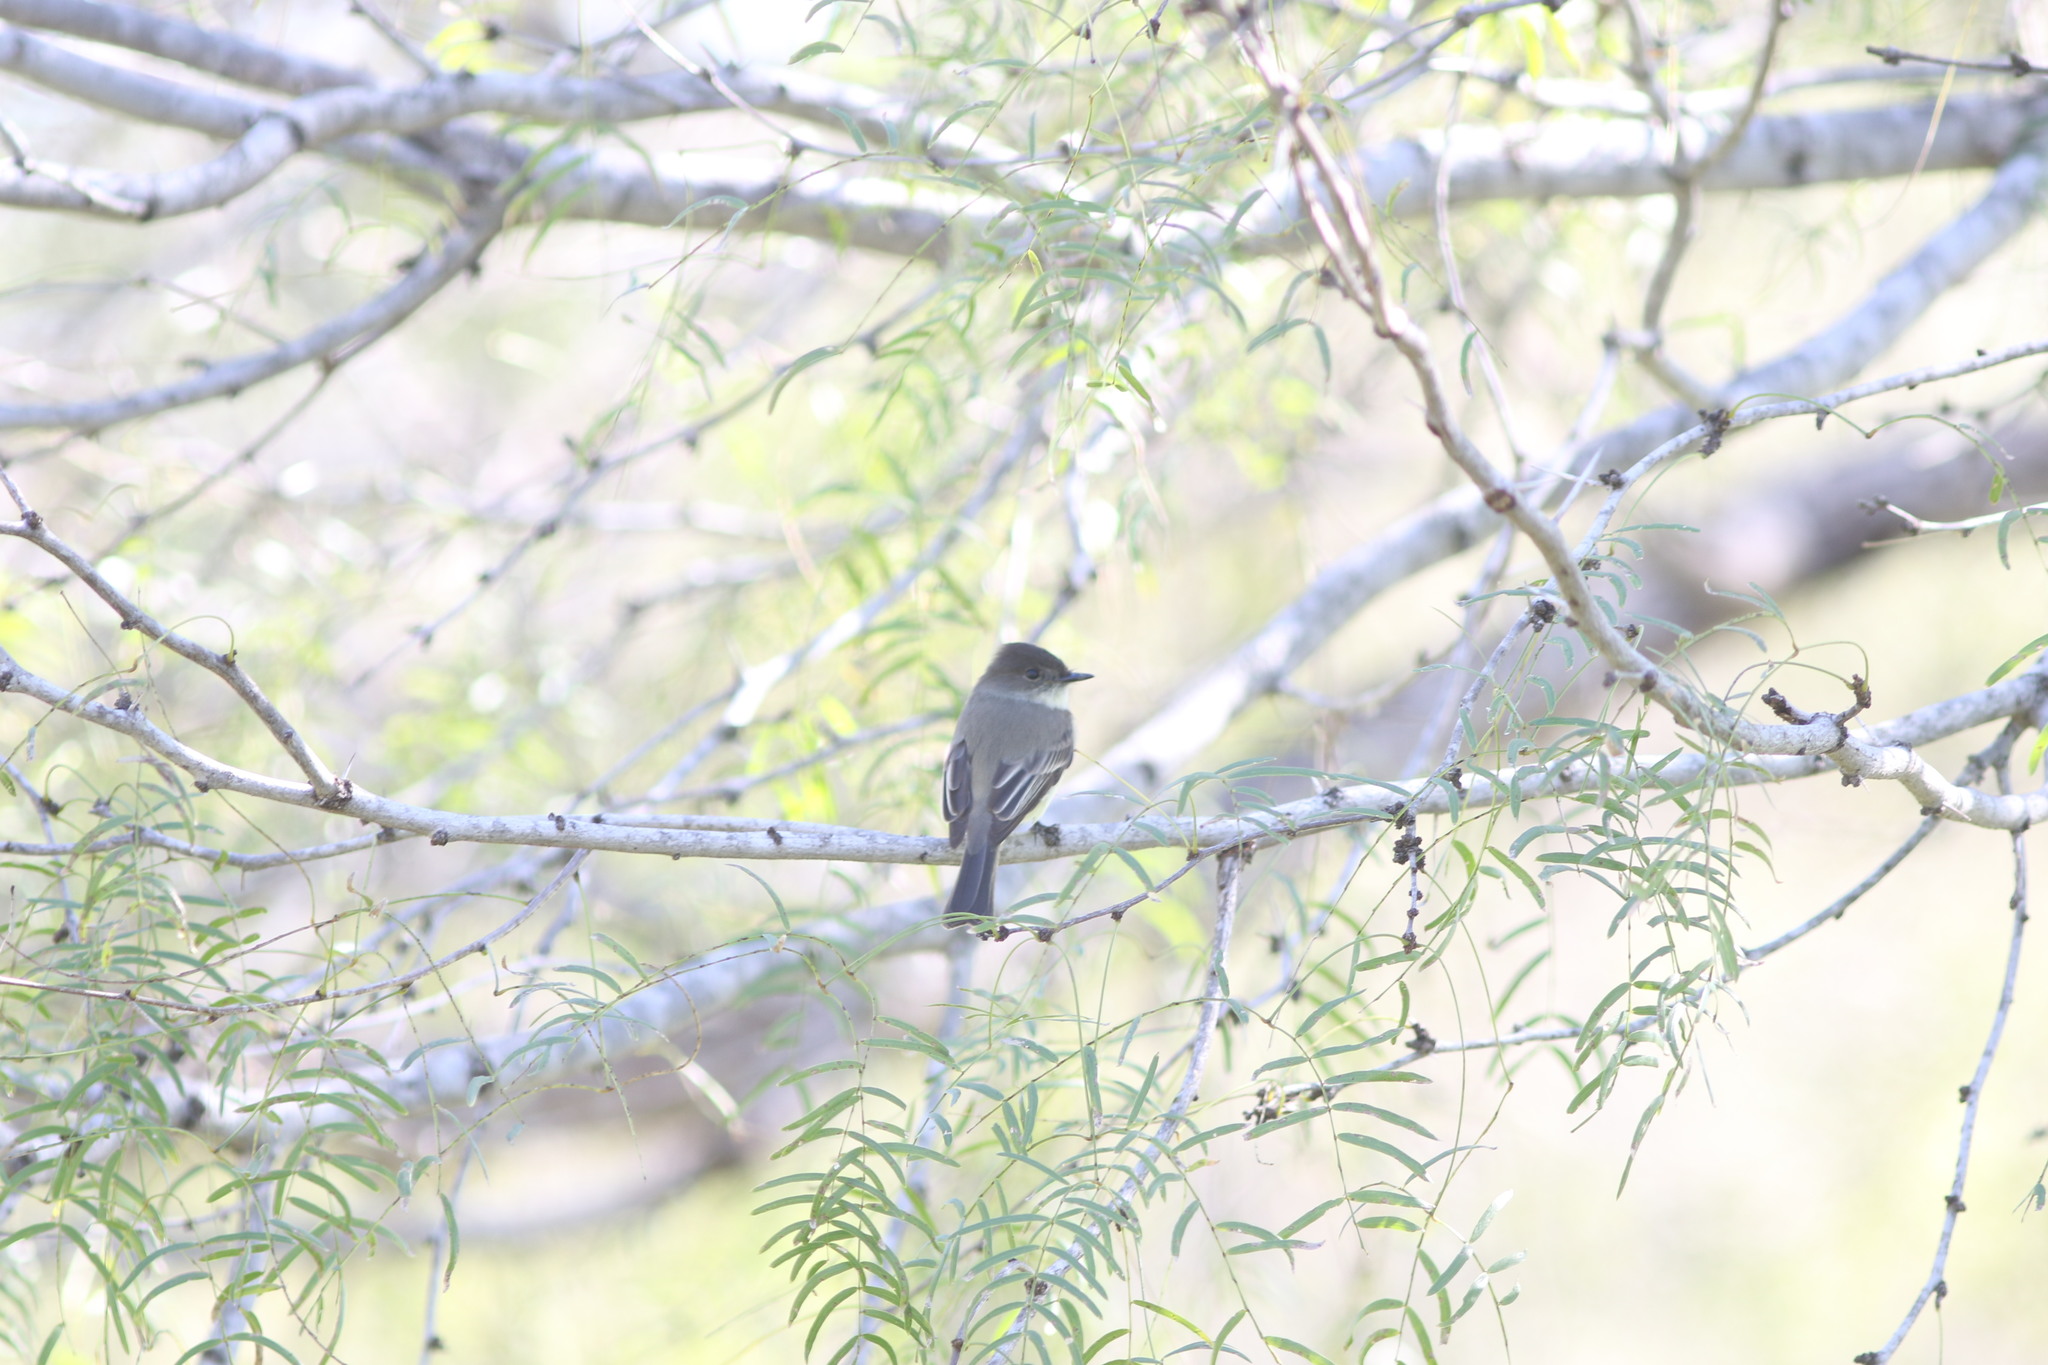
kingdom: Animalia
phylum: Chordata
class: Aves
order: Passeriformes
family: Tyrannidae
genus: Sayornis
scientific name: Sayornis phoebe
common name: Eastern phoebe
